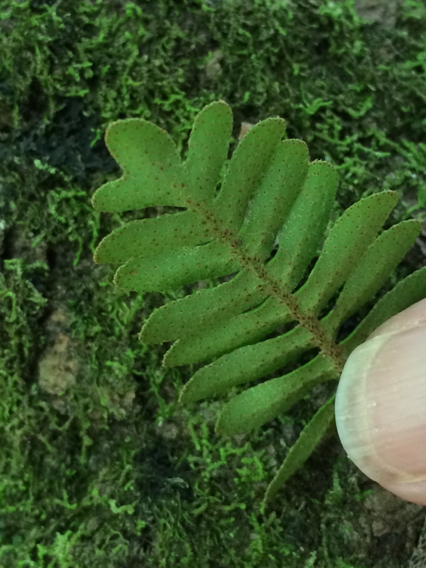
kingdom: Plantae
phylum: Tracheophyta
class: Polypodiopsida
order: Polypodiales
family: Polypodiaceae
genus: Pleopeltis
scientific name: Pleopeltis michauxiana
